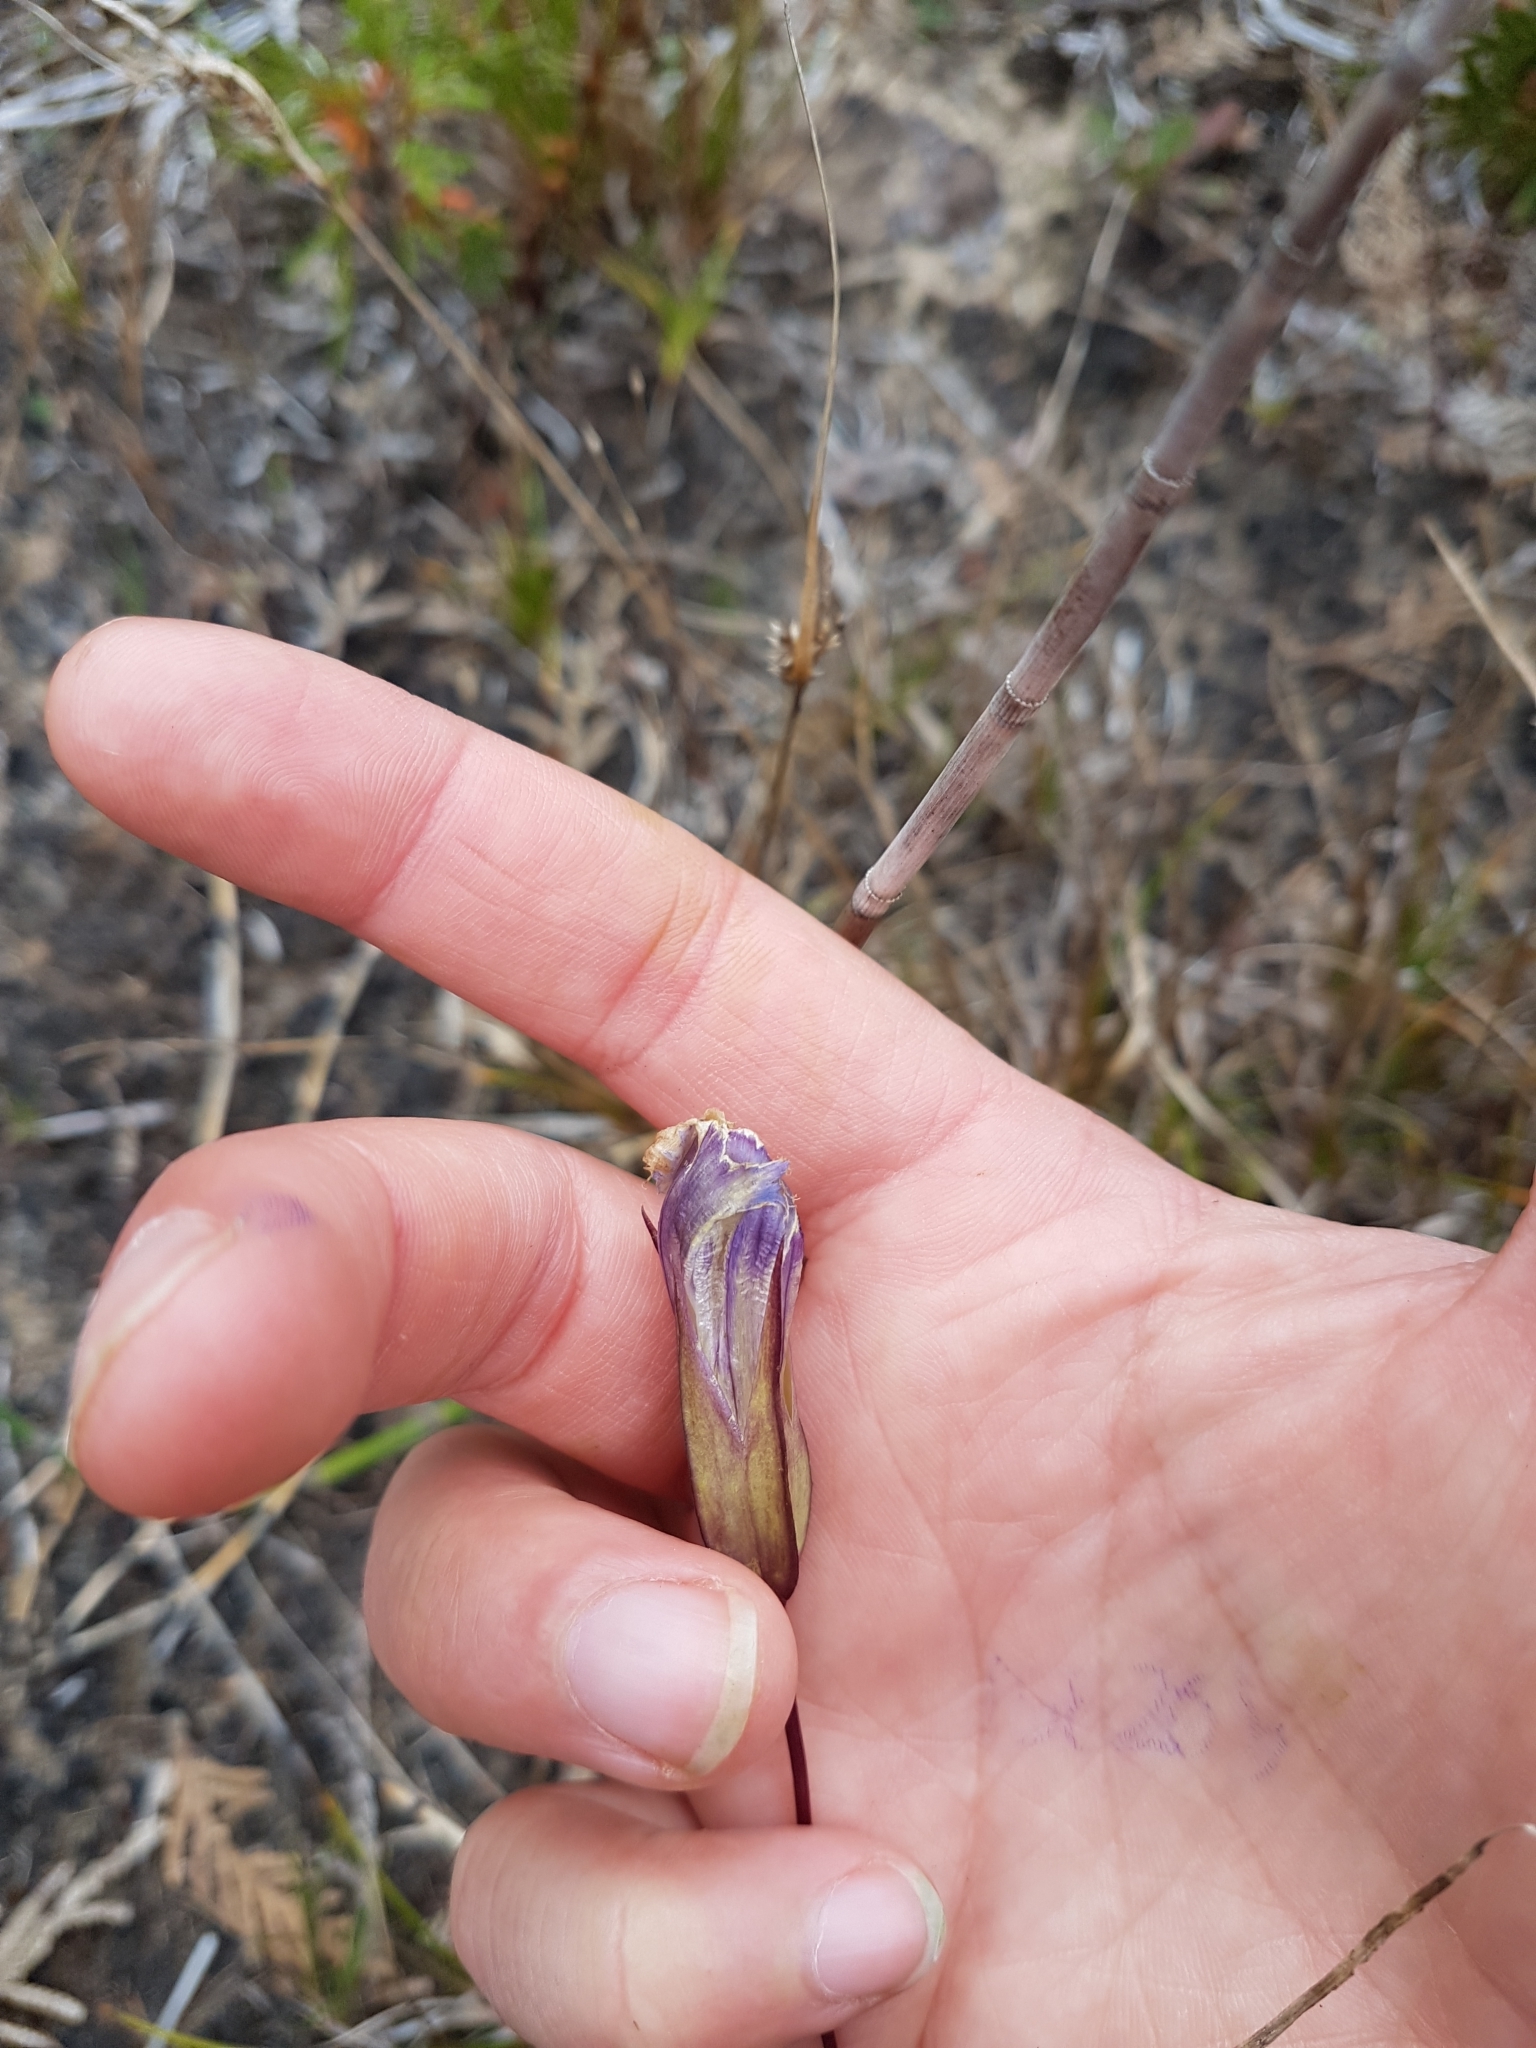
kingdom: Plantae
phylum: Tracheophyta
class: Magnoliopsida
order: Gentianales
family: Gentianaceae
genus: Gentianopsis
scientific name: Gentianopsis crinita
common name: Fringed-gentian
